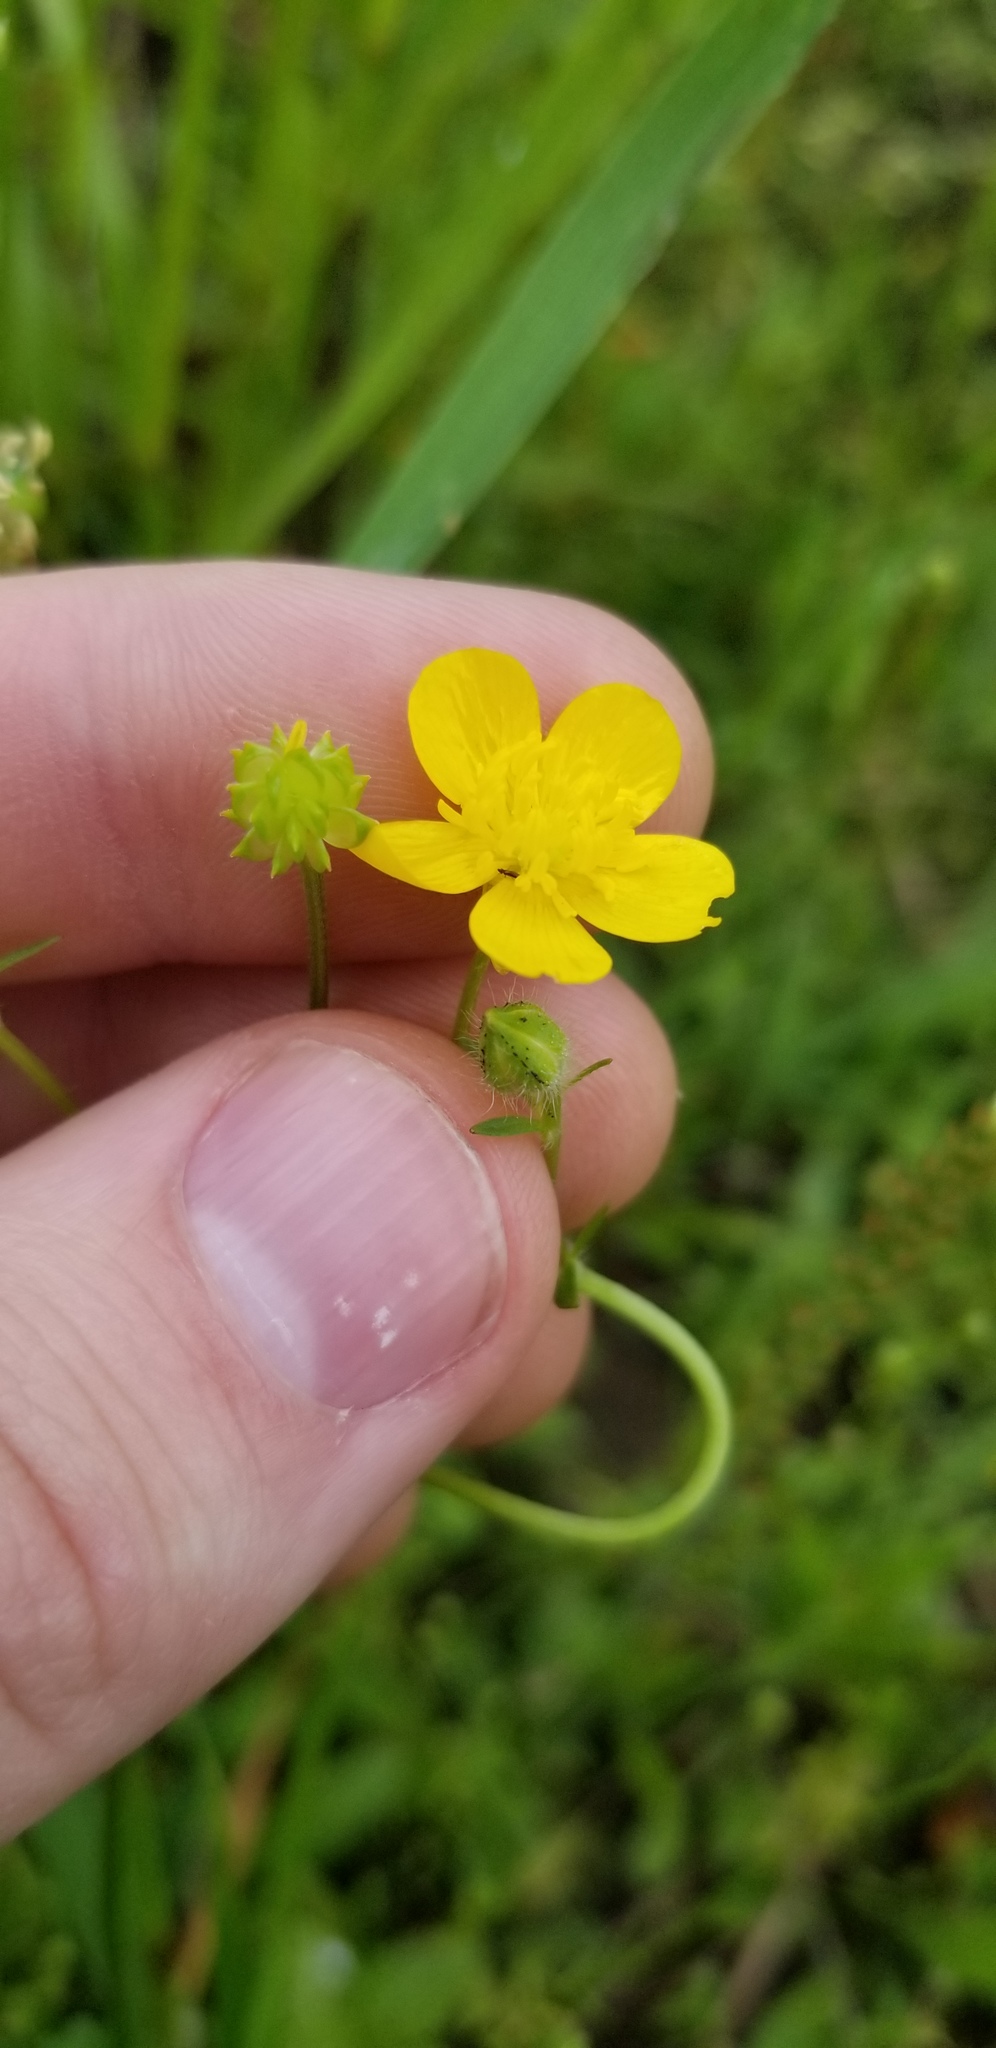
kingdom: Plantae
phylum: Tracheophyta
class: Magnoliopsida
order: Ranunculales
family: Ranunculaceae
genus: Ranunculus
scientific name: Ranunculus sardous
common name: Hairy buttercup
